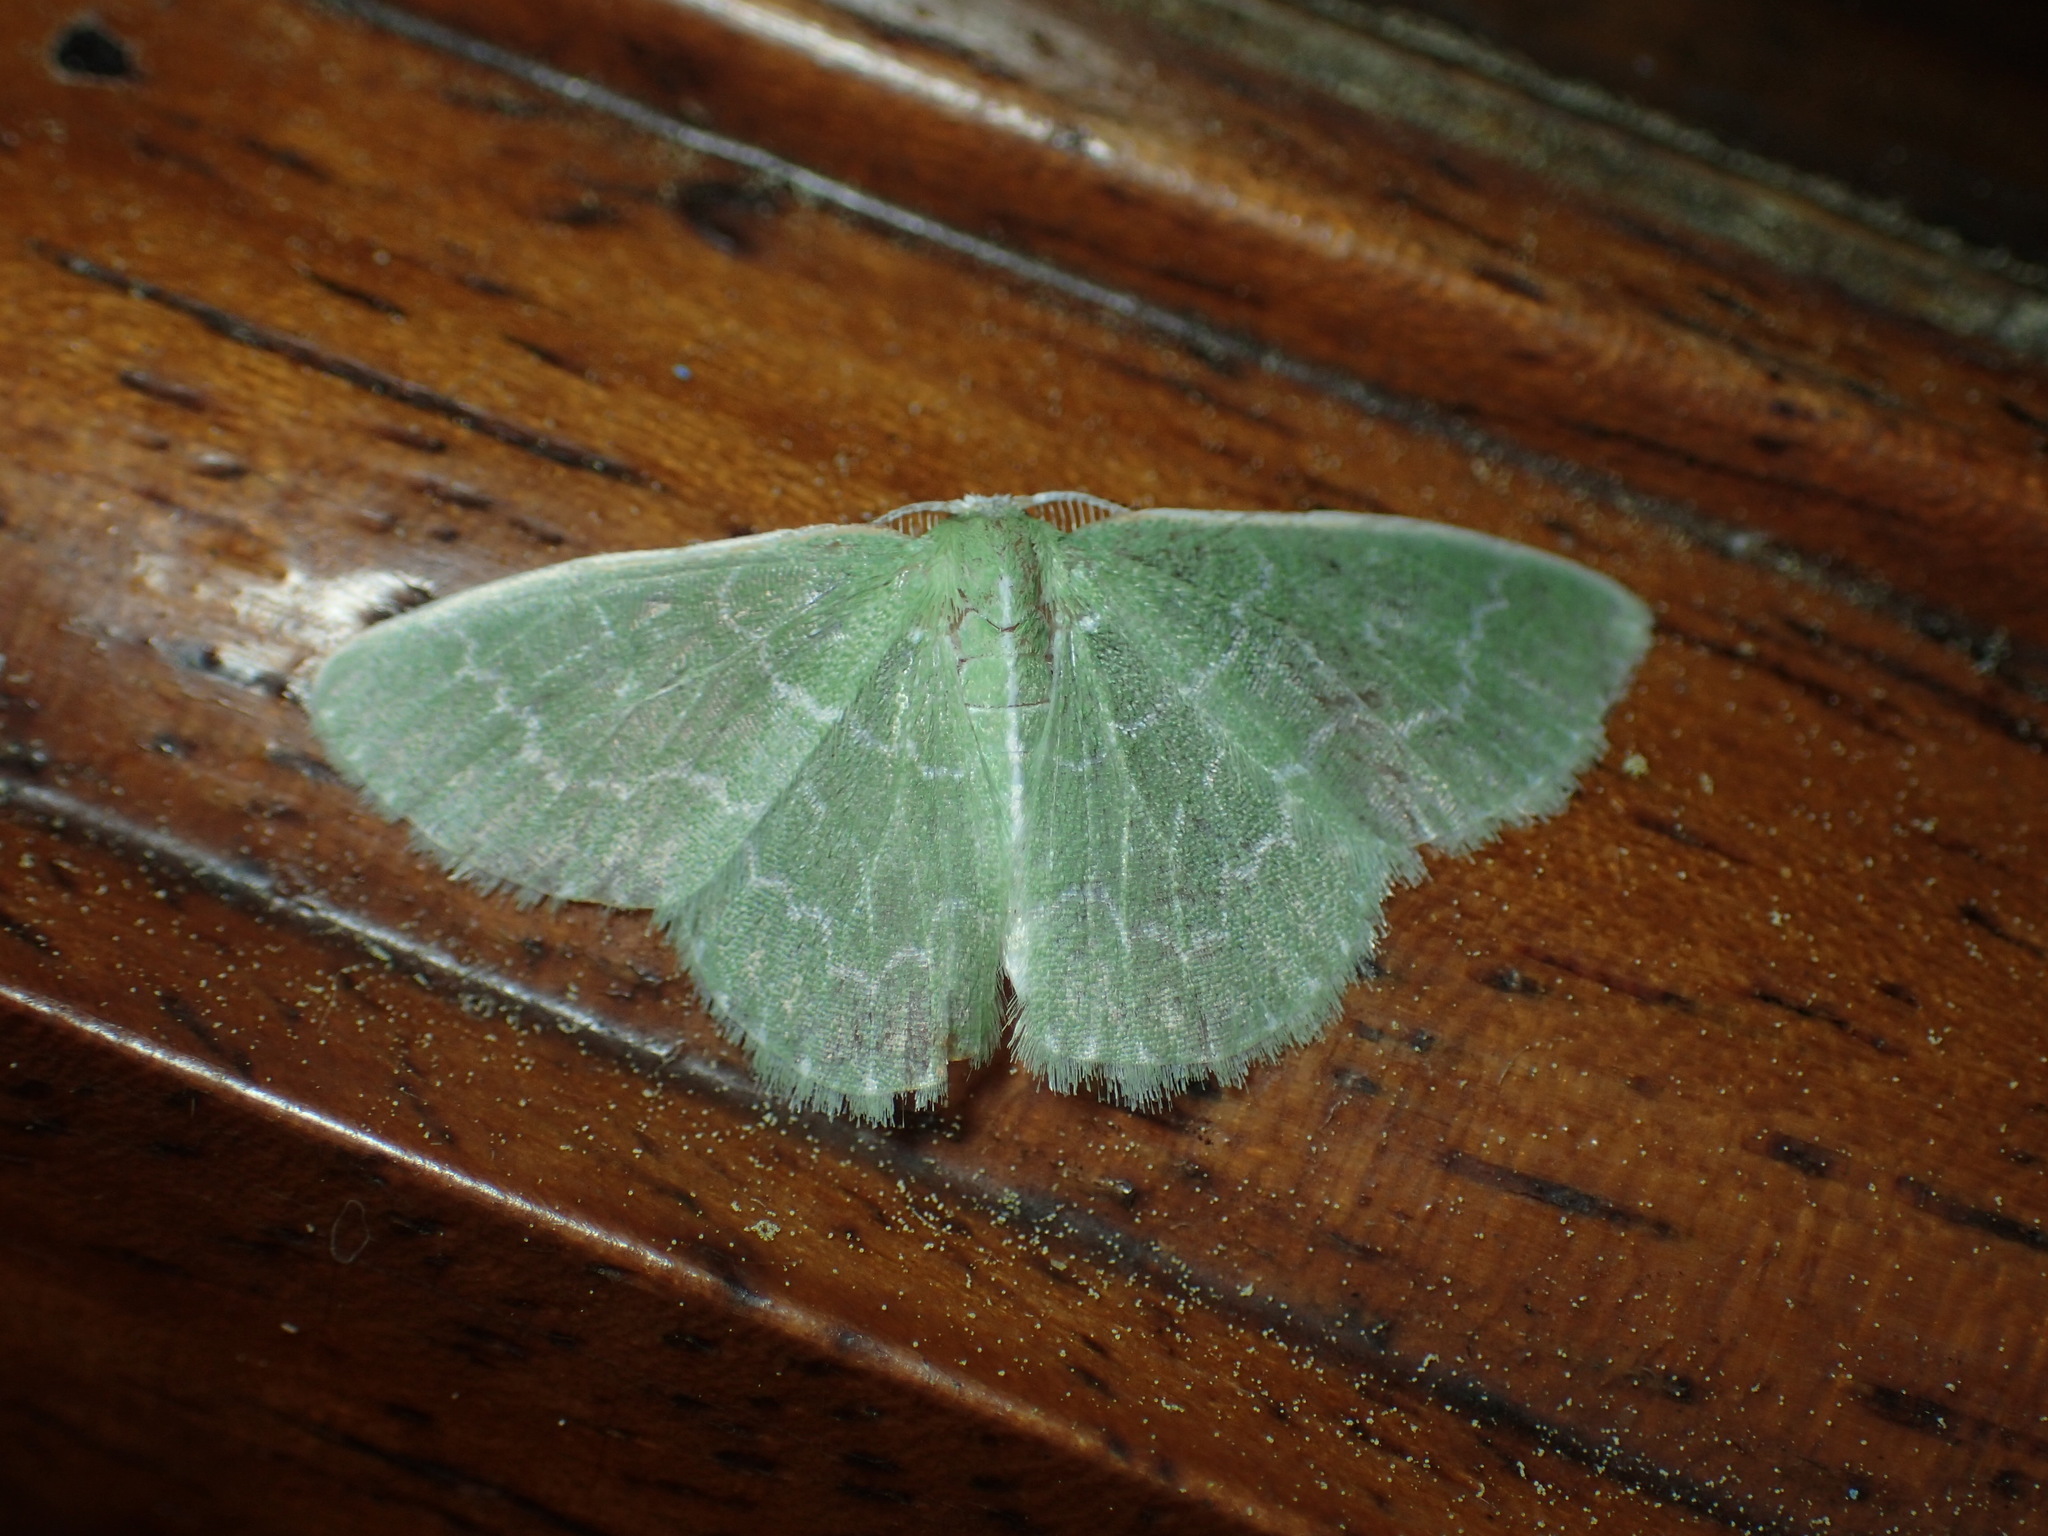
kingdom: Animalia
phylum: Arthropoda
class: Insecta
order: Lepidoptera
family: Geometridae
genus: Synchlora
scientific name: Synchlora frondaria
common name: Southern emerald
